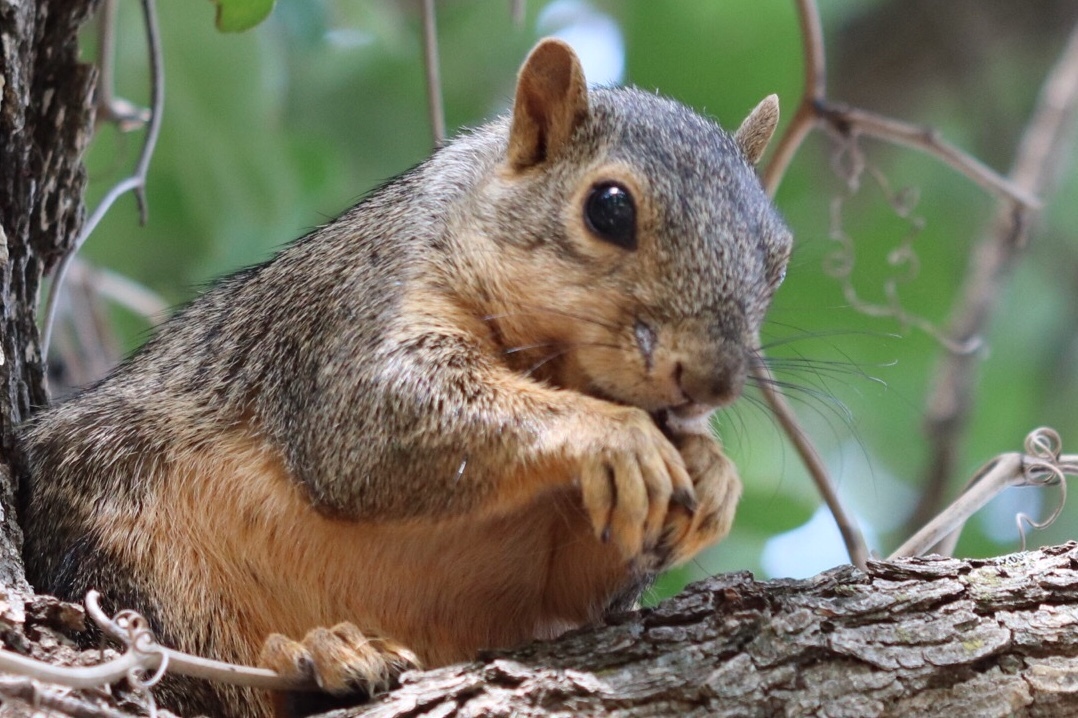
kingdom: Animalia
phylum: Chordata
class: Mammalia
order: Rodentia
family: Sciuridae
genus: Sciurus
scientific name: Sciurus niger
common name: Fox squirrel
